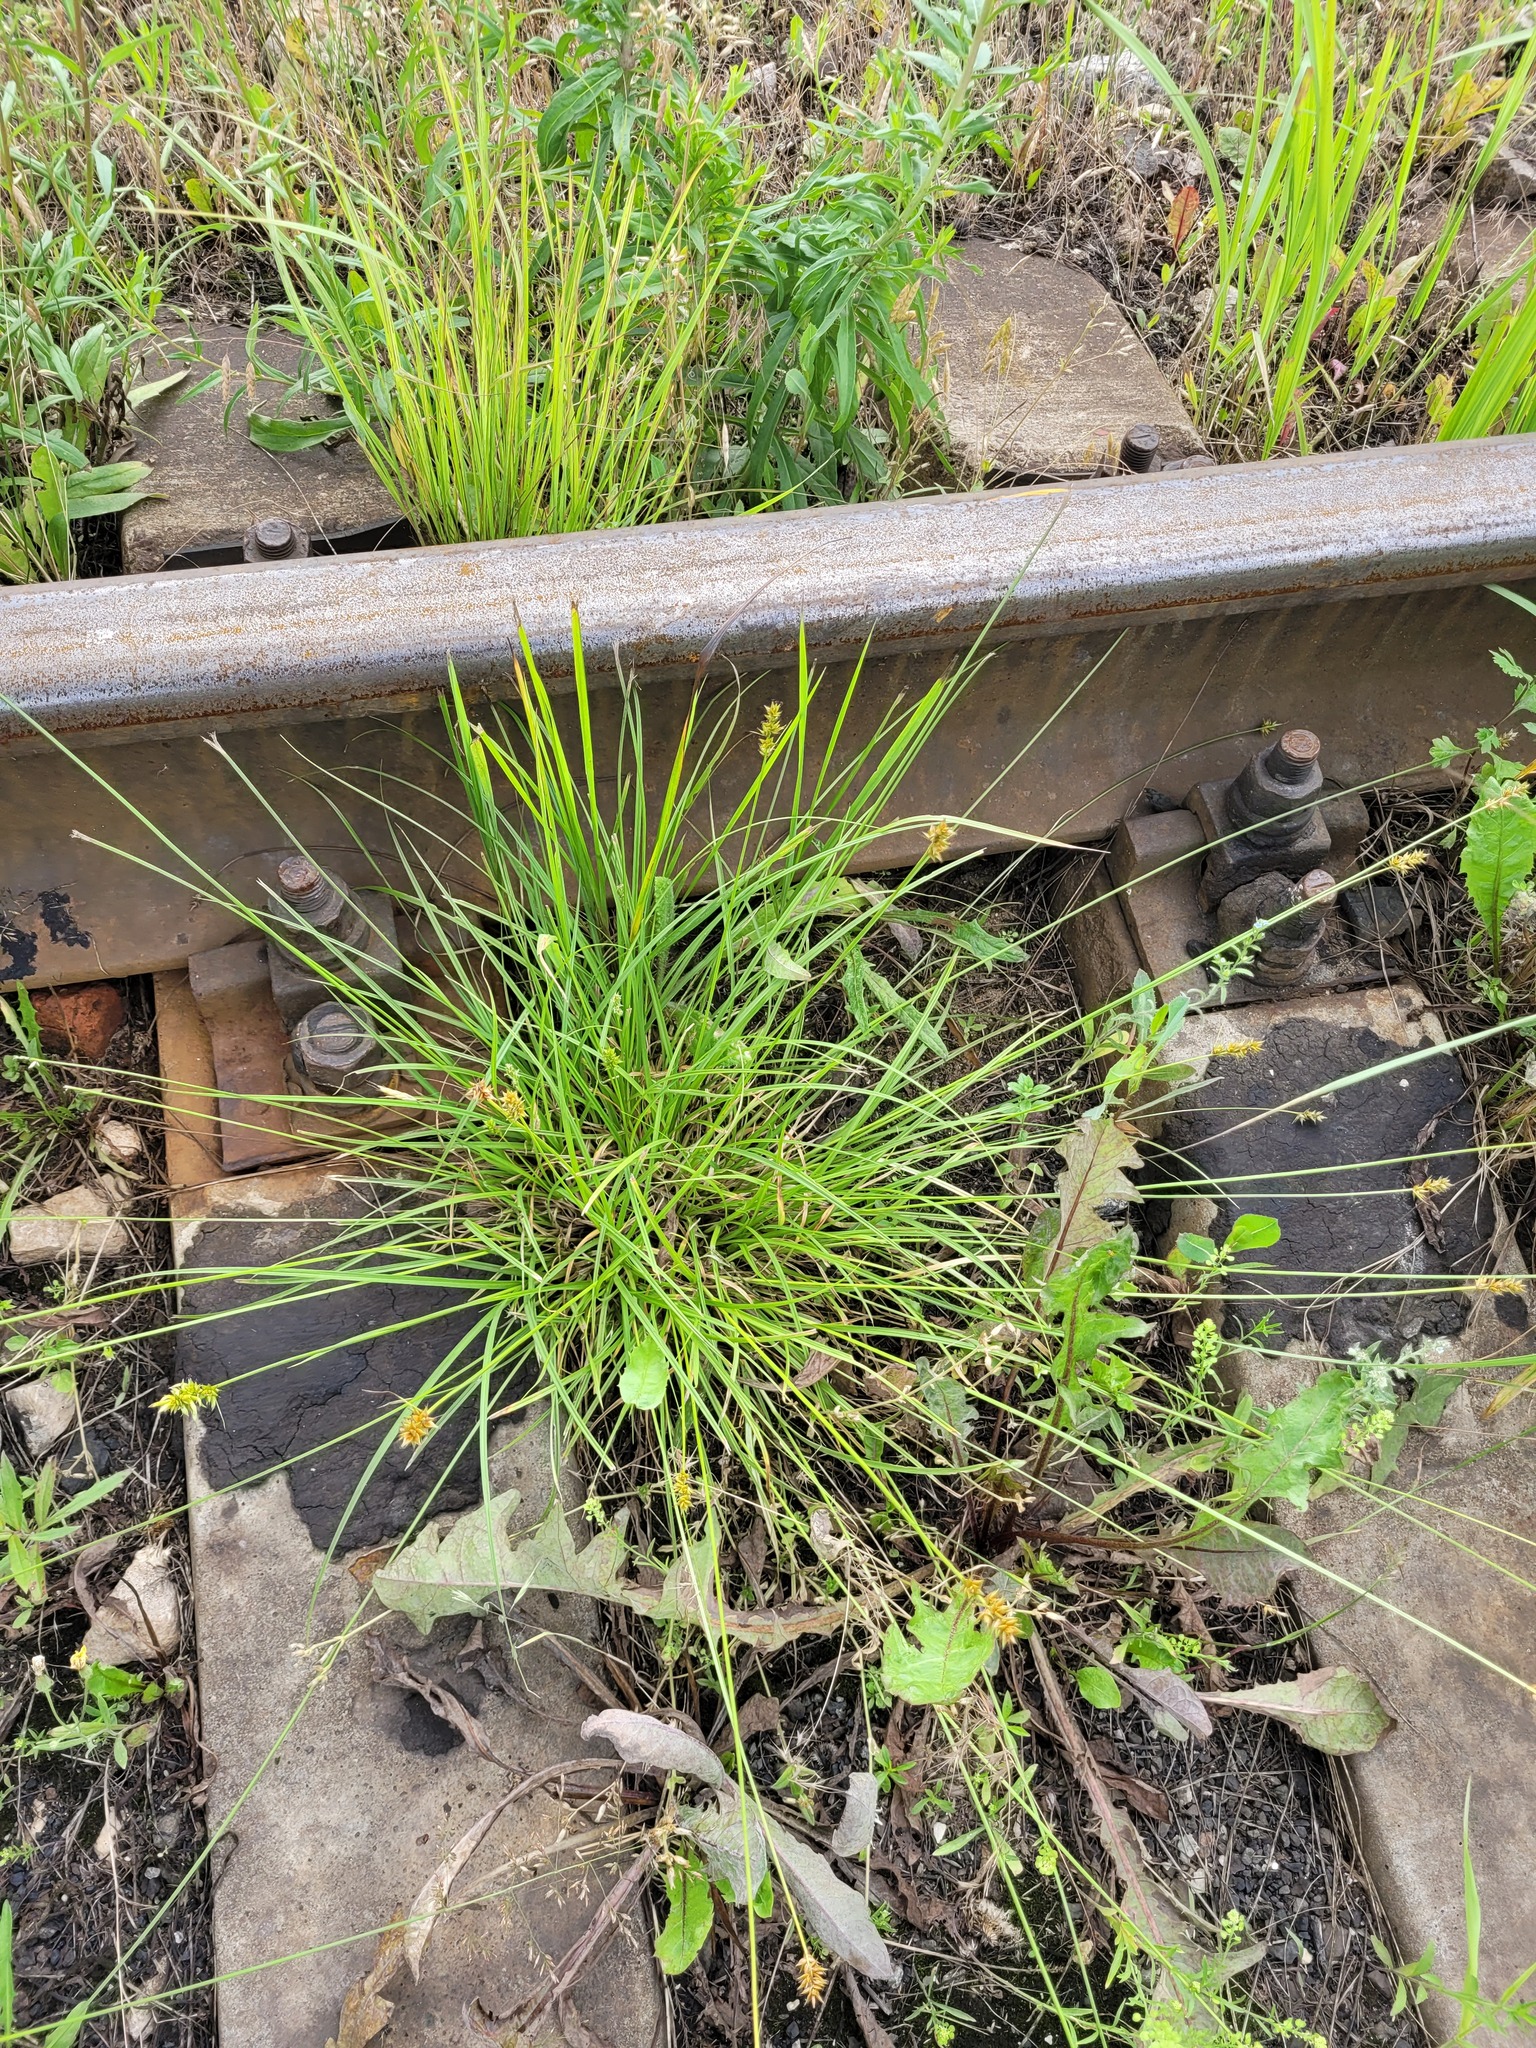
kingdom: Plantae
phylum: Tracheophyta
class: Liliopsida
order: Poales
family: Cyperaceae
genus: Carex
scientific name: Carex spicata
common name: Spiked sedge
